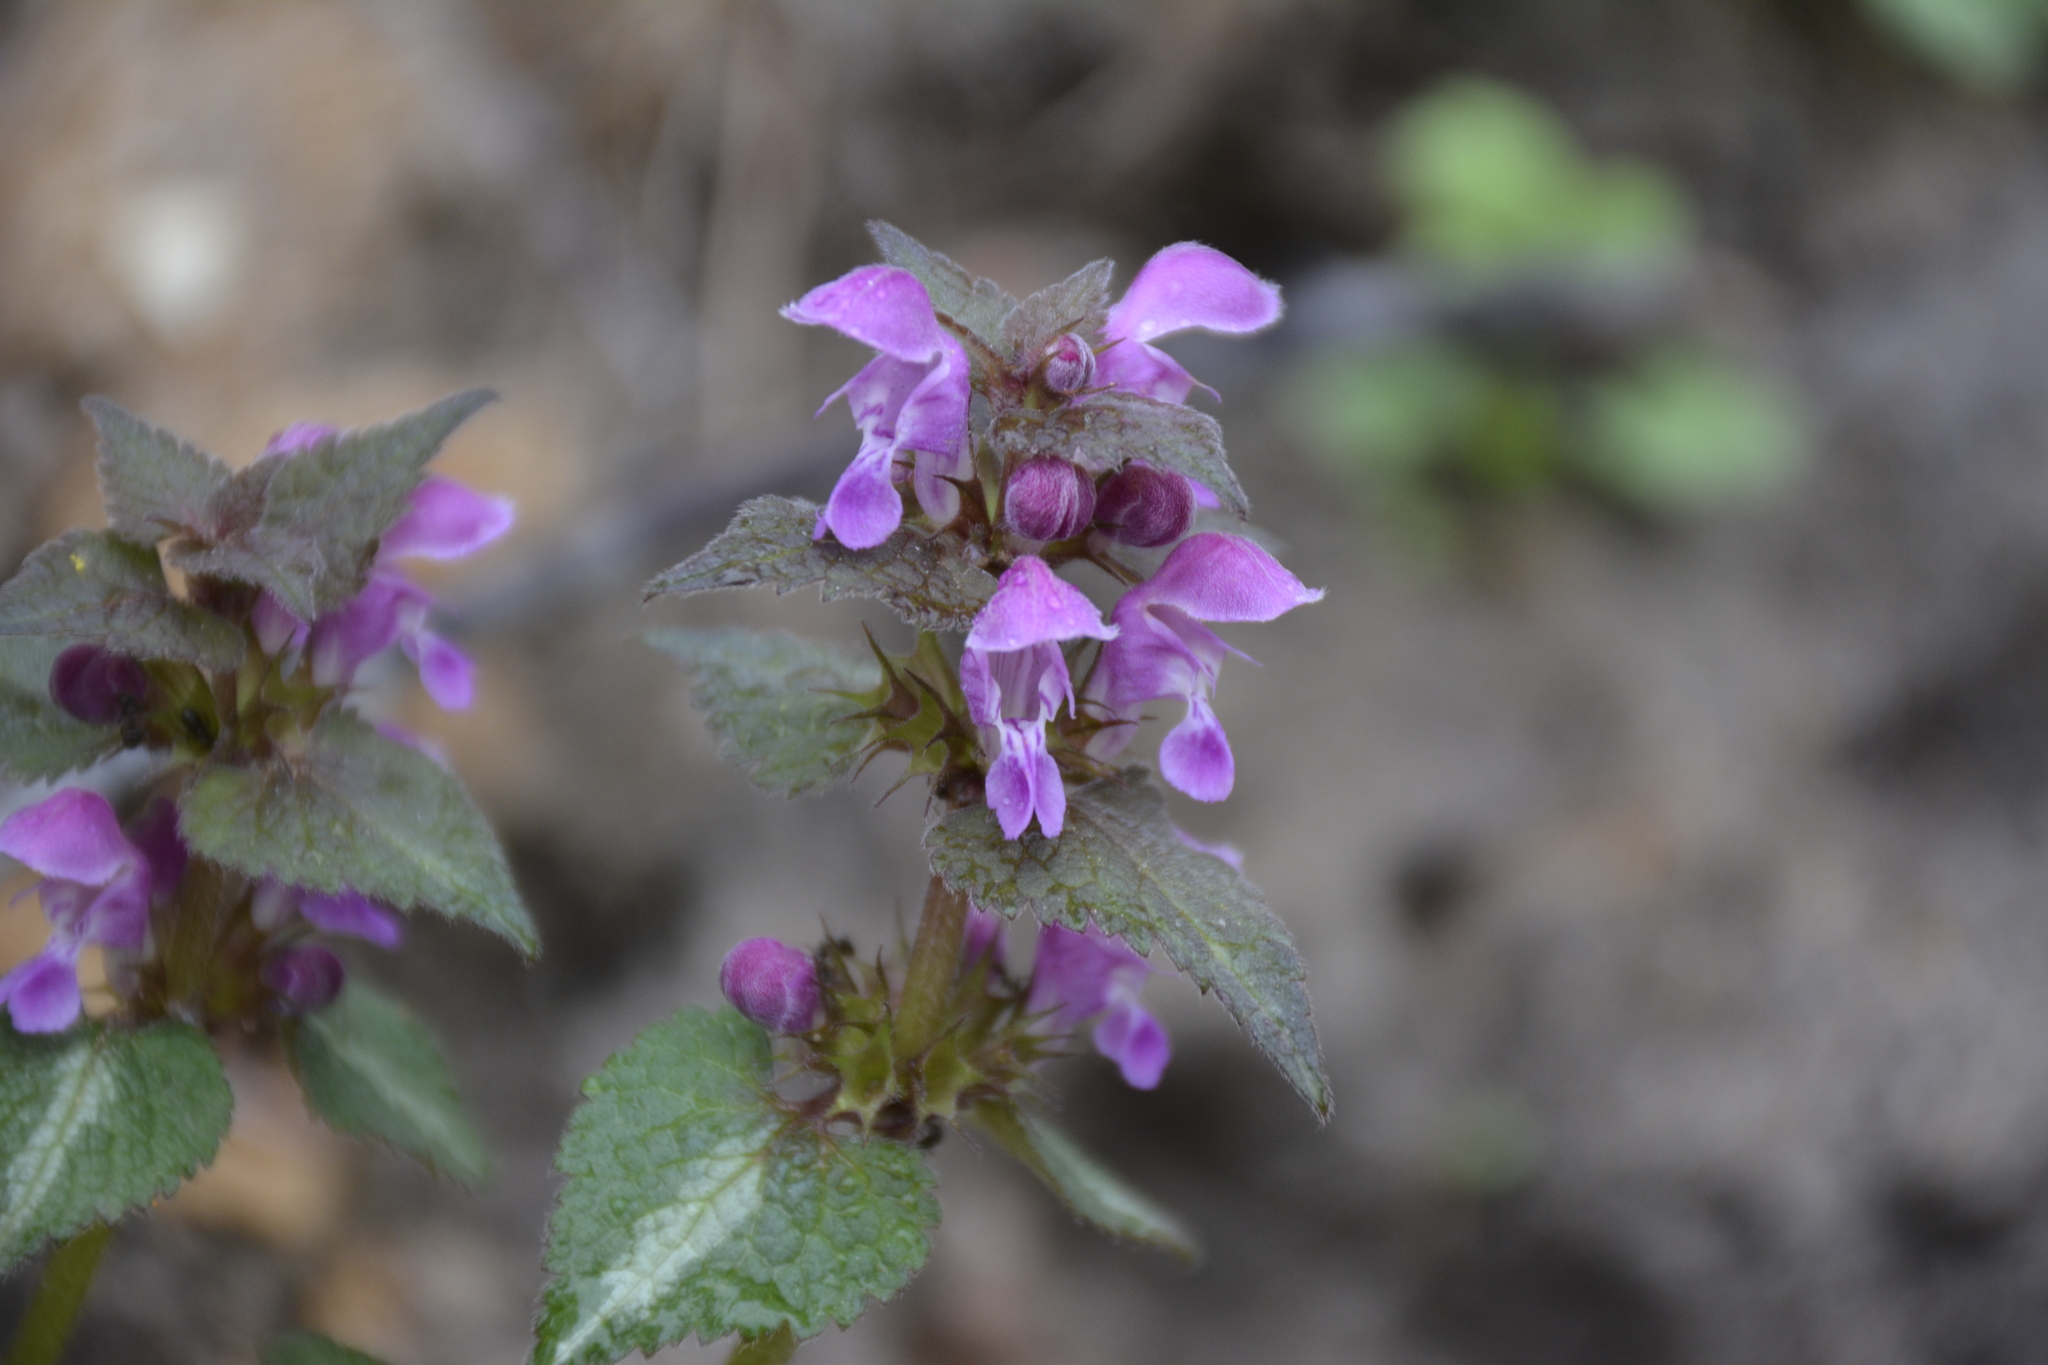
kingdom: Plantae
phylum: Tracheophyta
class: Magnoliopsida
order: Lamiales
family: Lamiaceae
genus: Lamium
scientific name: Lamium maculatum
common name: Spotted dead-nettle
